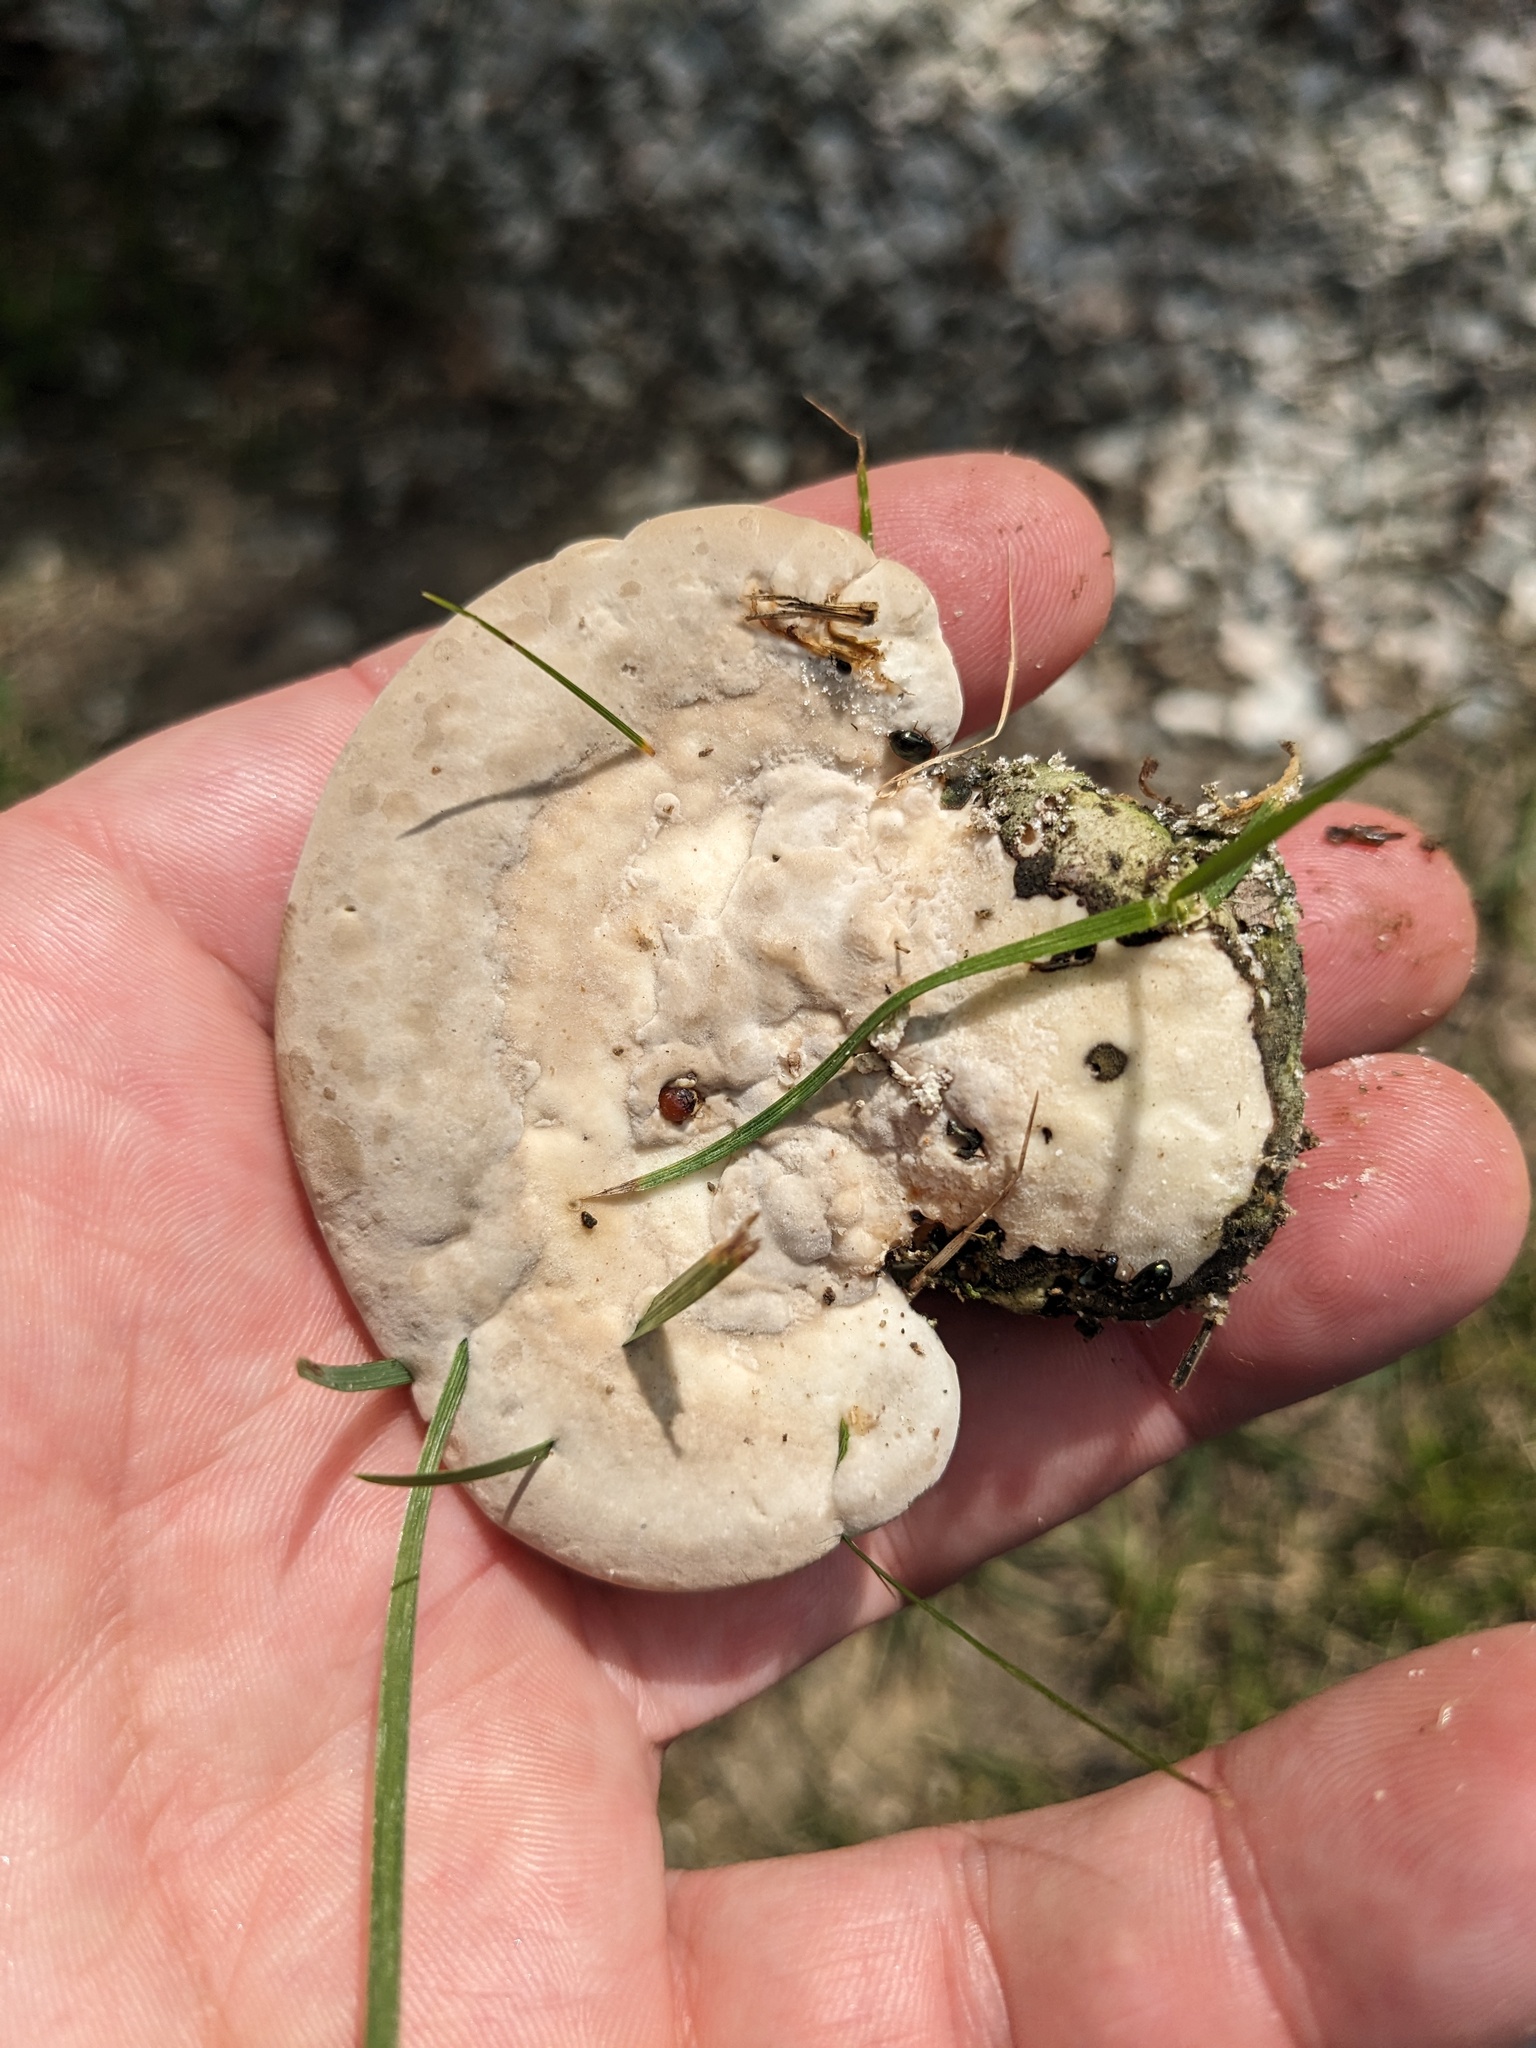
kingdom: Fungi
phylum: Basidiomycota
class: Agaricomycetes
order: Polyporales
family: Polyporaceae
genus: Trametes
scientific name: Trametes gibbosa
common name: Lumpy bracket
